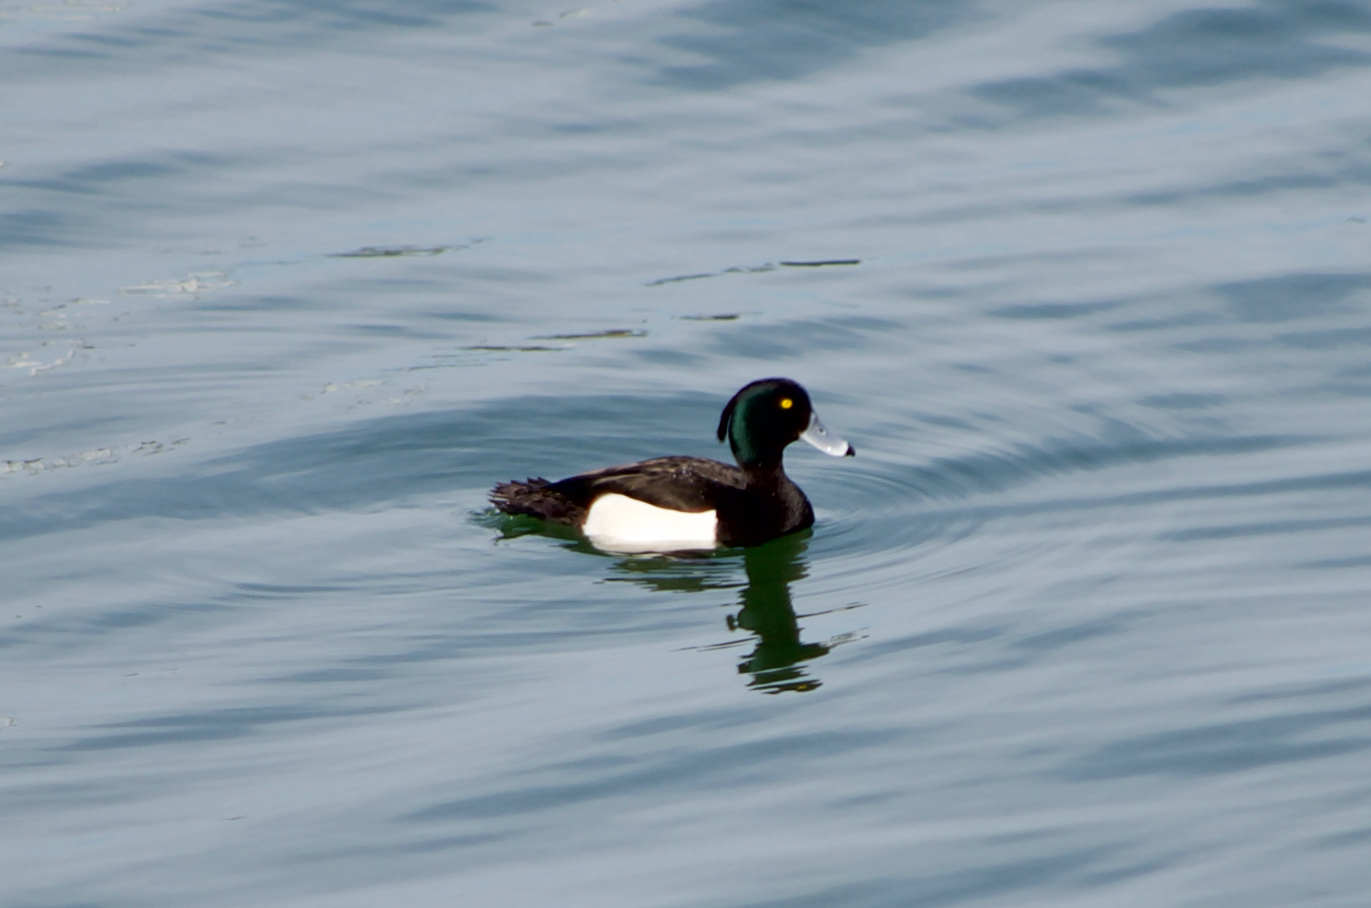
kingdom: Animalia
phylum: Chordata
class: Aves
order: Anseriformes
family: Anatidae
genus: Aythya
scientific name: Aythya fuligula
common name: Tufted duck
